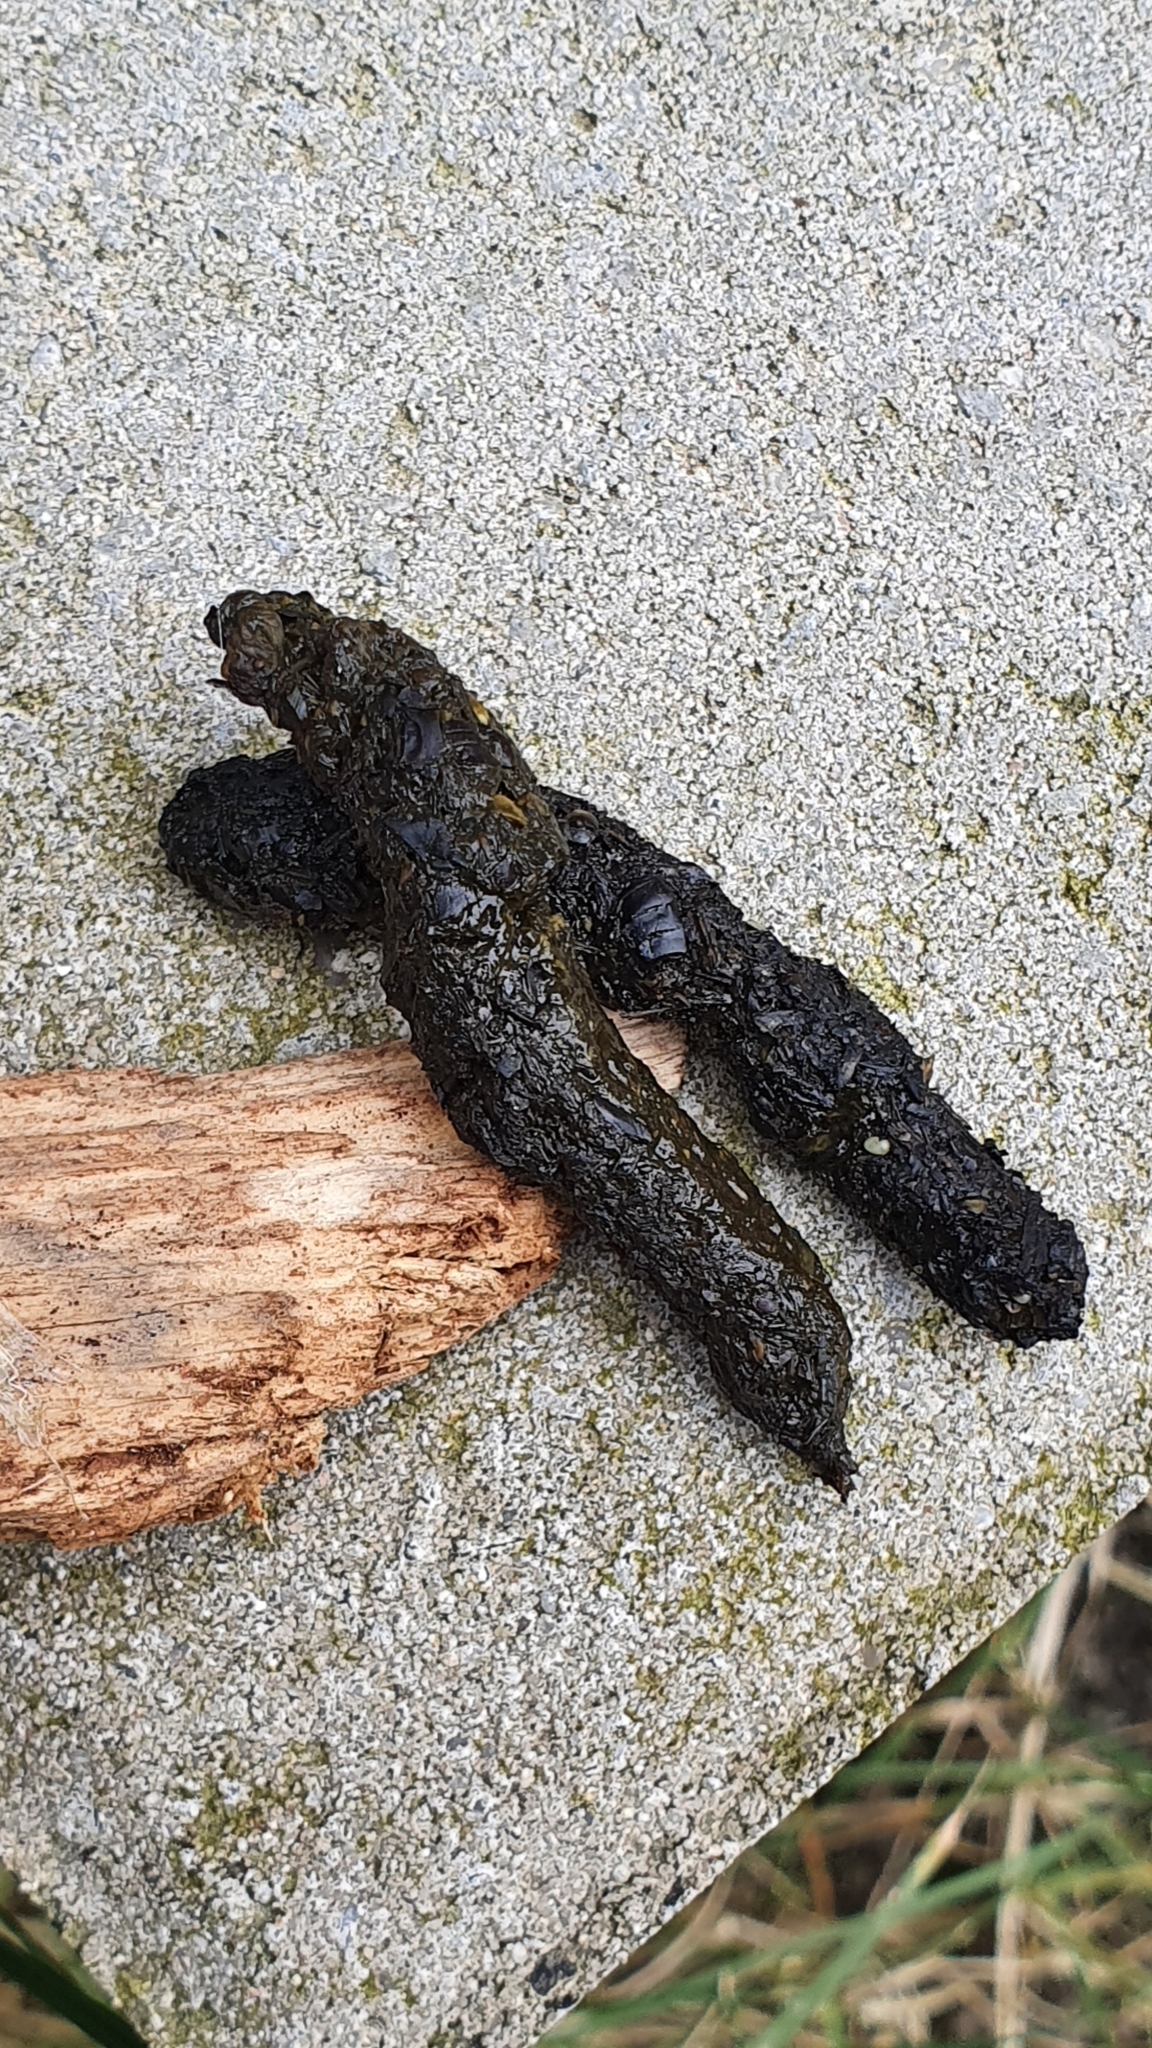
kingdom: Animalia
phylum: Chordata
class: Mammalia
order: Erinaceomorpha
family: Erinaceidae
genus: Erinaceus
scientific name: Erinaceus europaeus
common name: West european hedgehog
